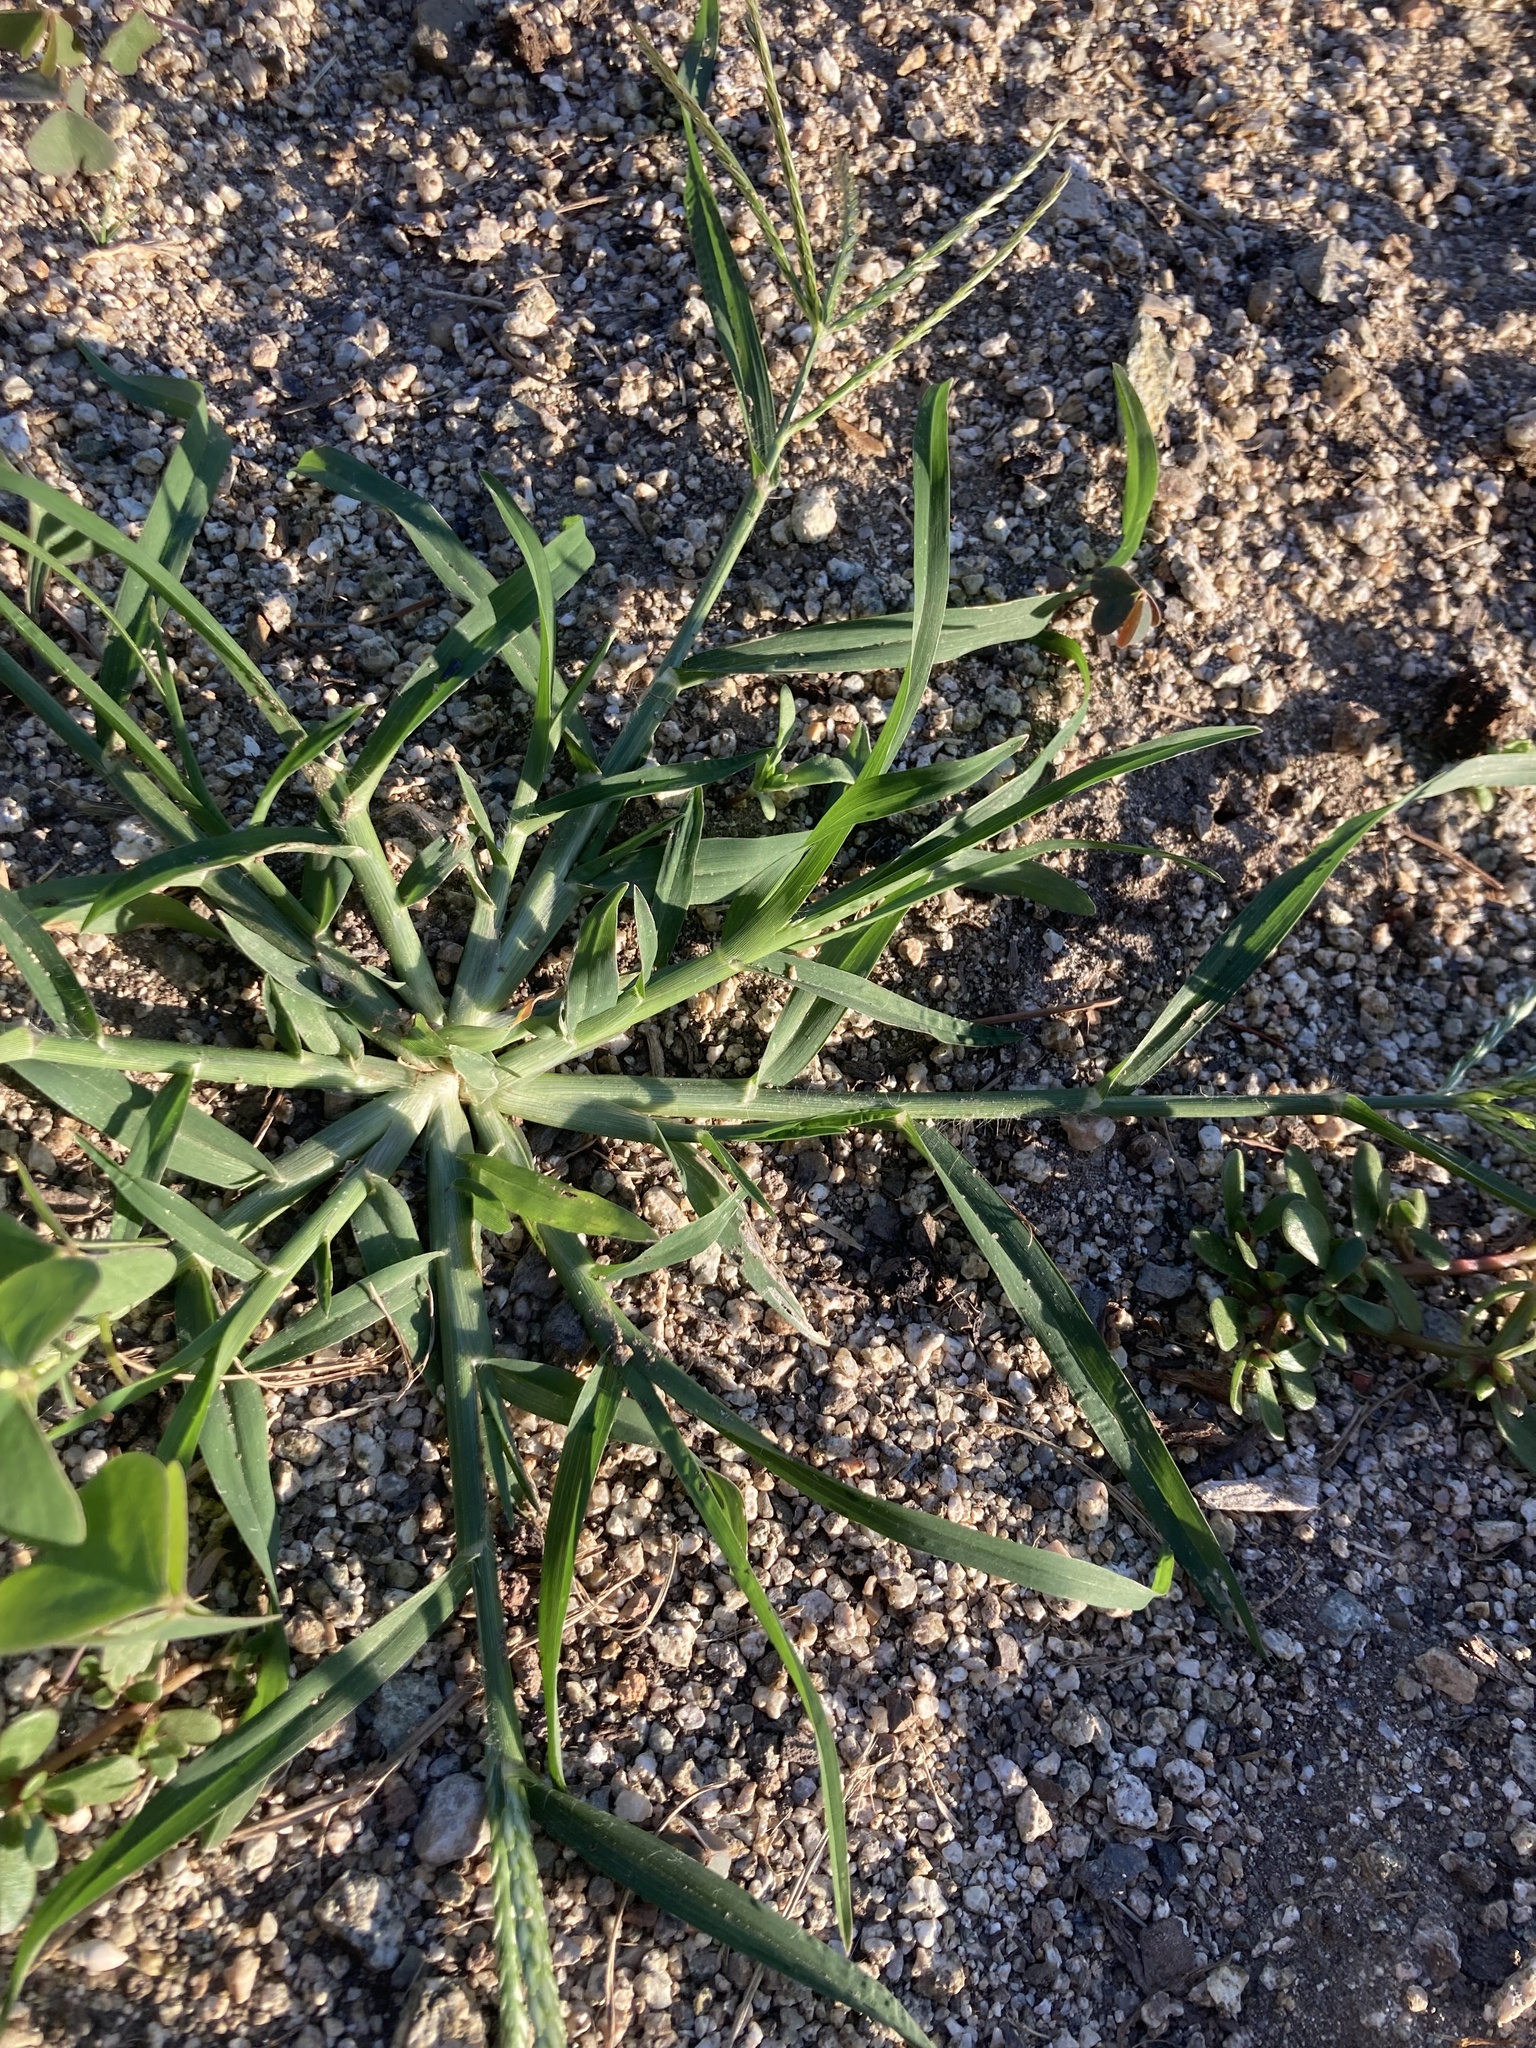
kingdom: Plantae
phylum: Tracheophyta
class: Liliopsida
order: Poales
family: Poaceae
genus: Eleusine
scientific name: Eleusine indica
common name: Yard-grass
